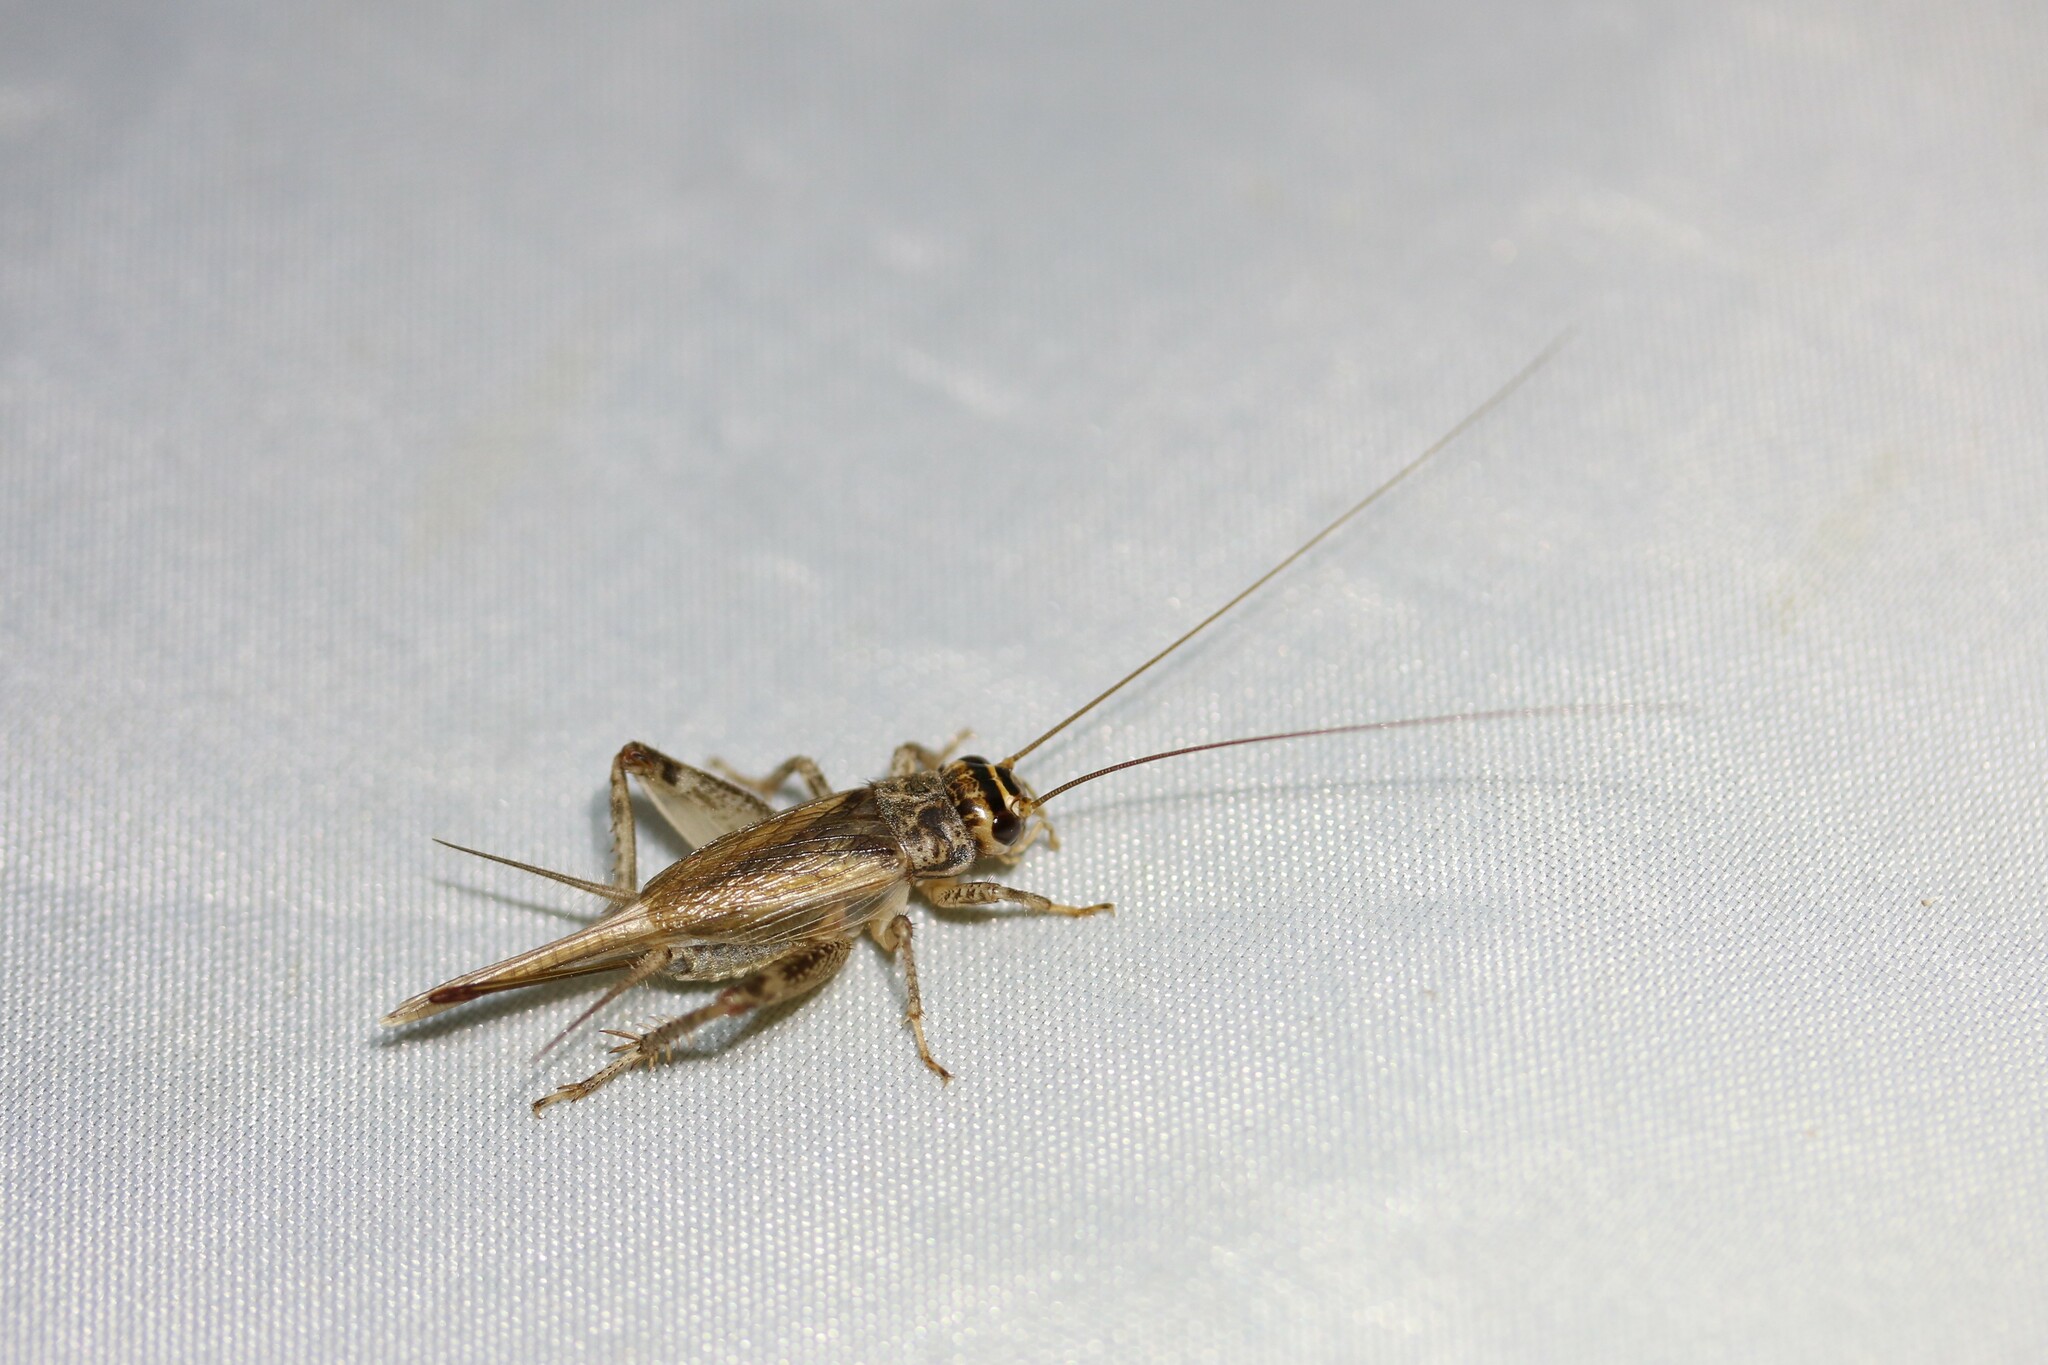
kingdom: Animalia
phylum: Arthropoda
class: Insecta
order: Orthoptera
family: Gryllidae
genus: Eumodicogryllus
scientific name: Eumodicogryllus bordigalensis
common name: Bordeaux cricket
